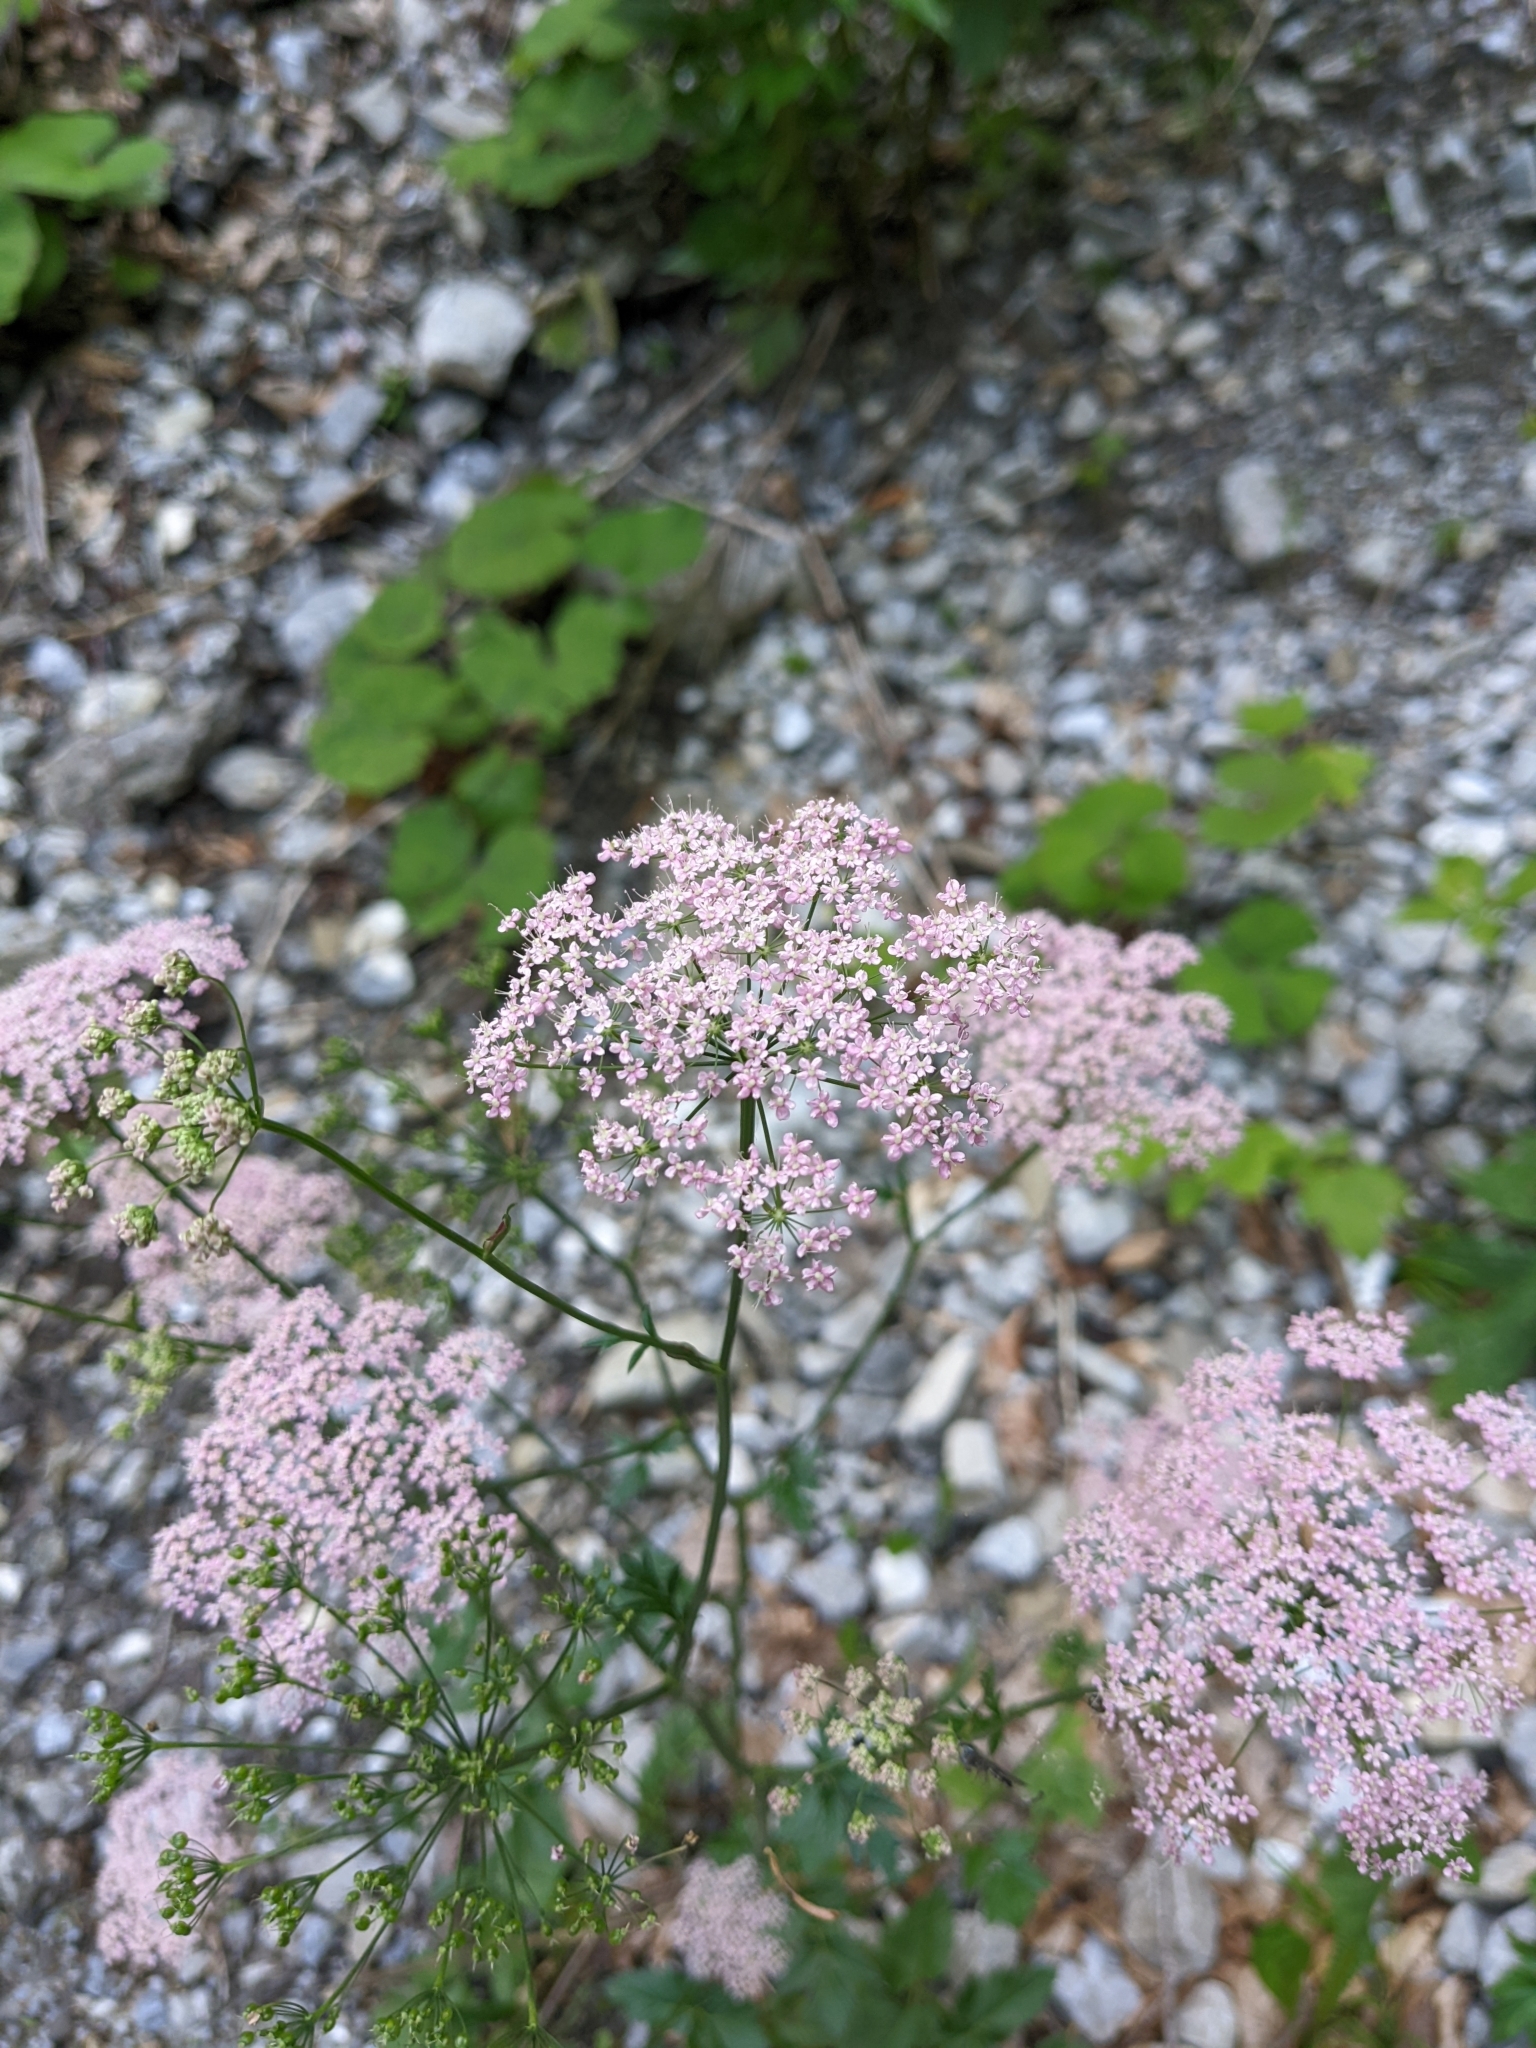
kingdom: Plantae
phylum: Tracheophyta
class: Magnoliopsida
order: Apiales
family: Apiaceae
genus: Pimpinella
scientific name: Pimpinella major
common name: Greater burnet-saxifrage
